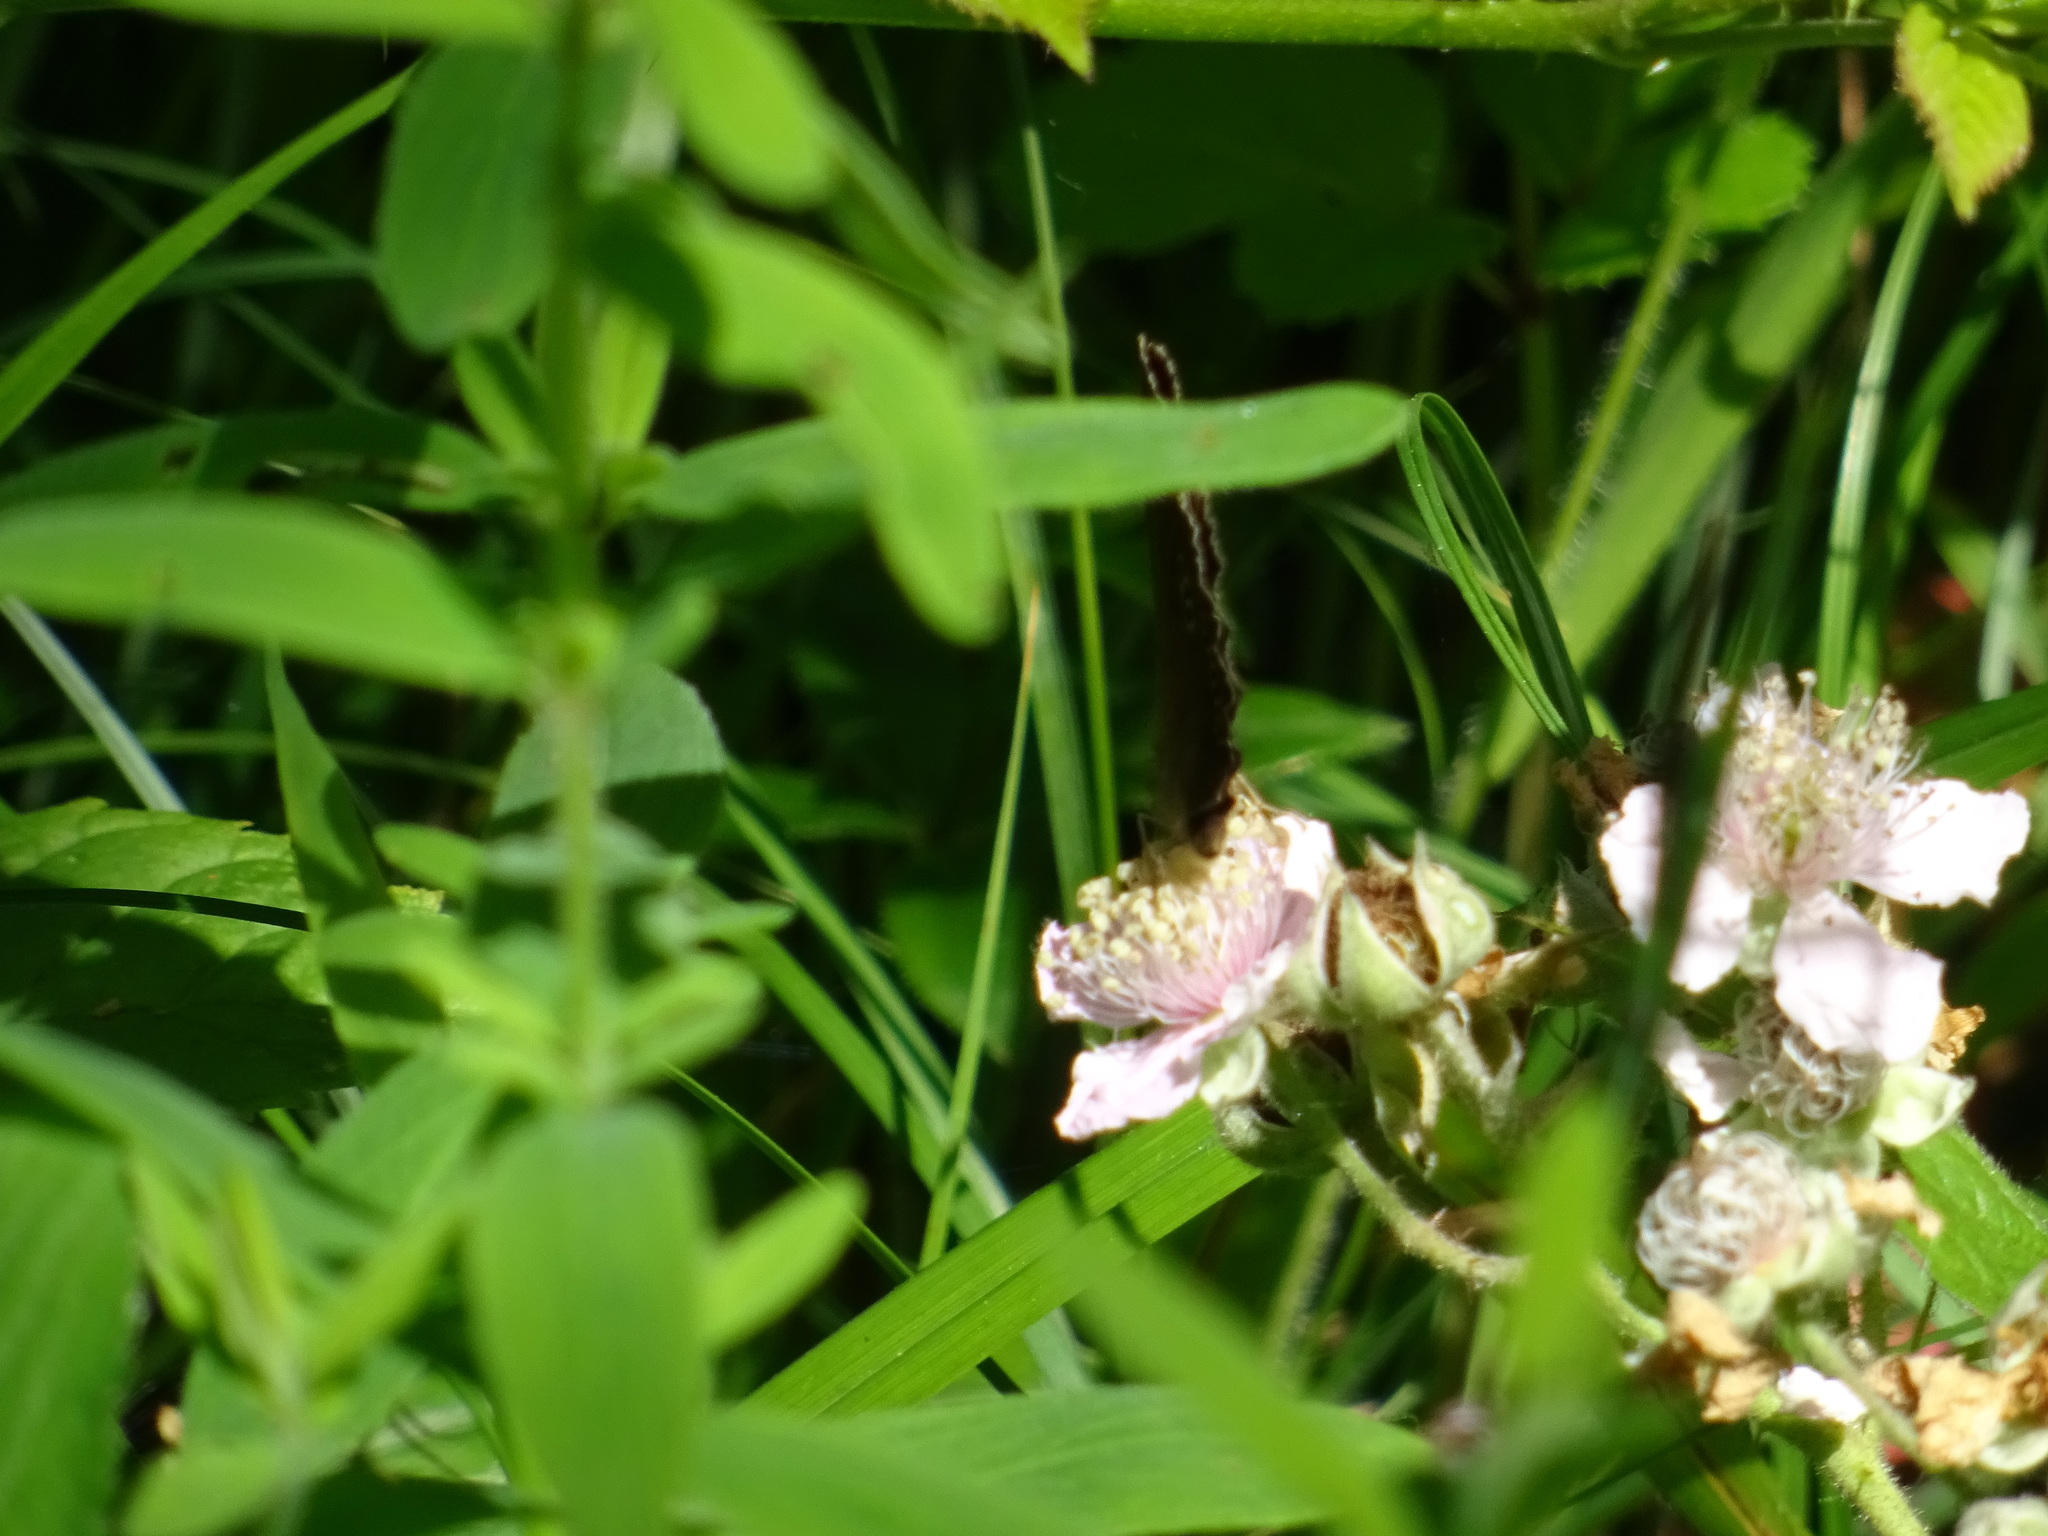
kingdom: Animalia
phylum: Arthropoda
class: Insecta
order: Lepidoptera
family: Nymphalidae
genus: Aphantopus
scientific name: Aphantopus hyperantus
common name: Ringlet
